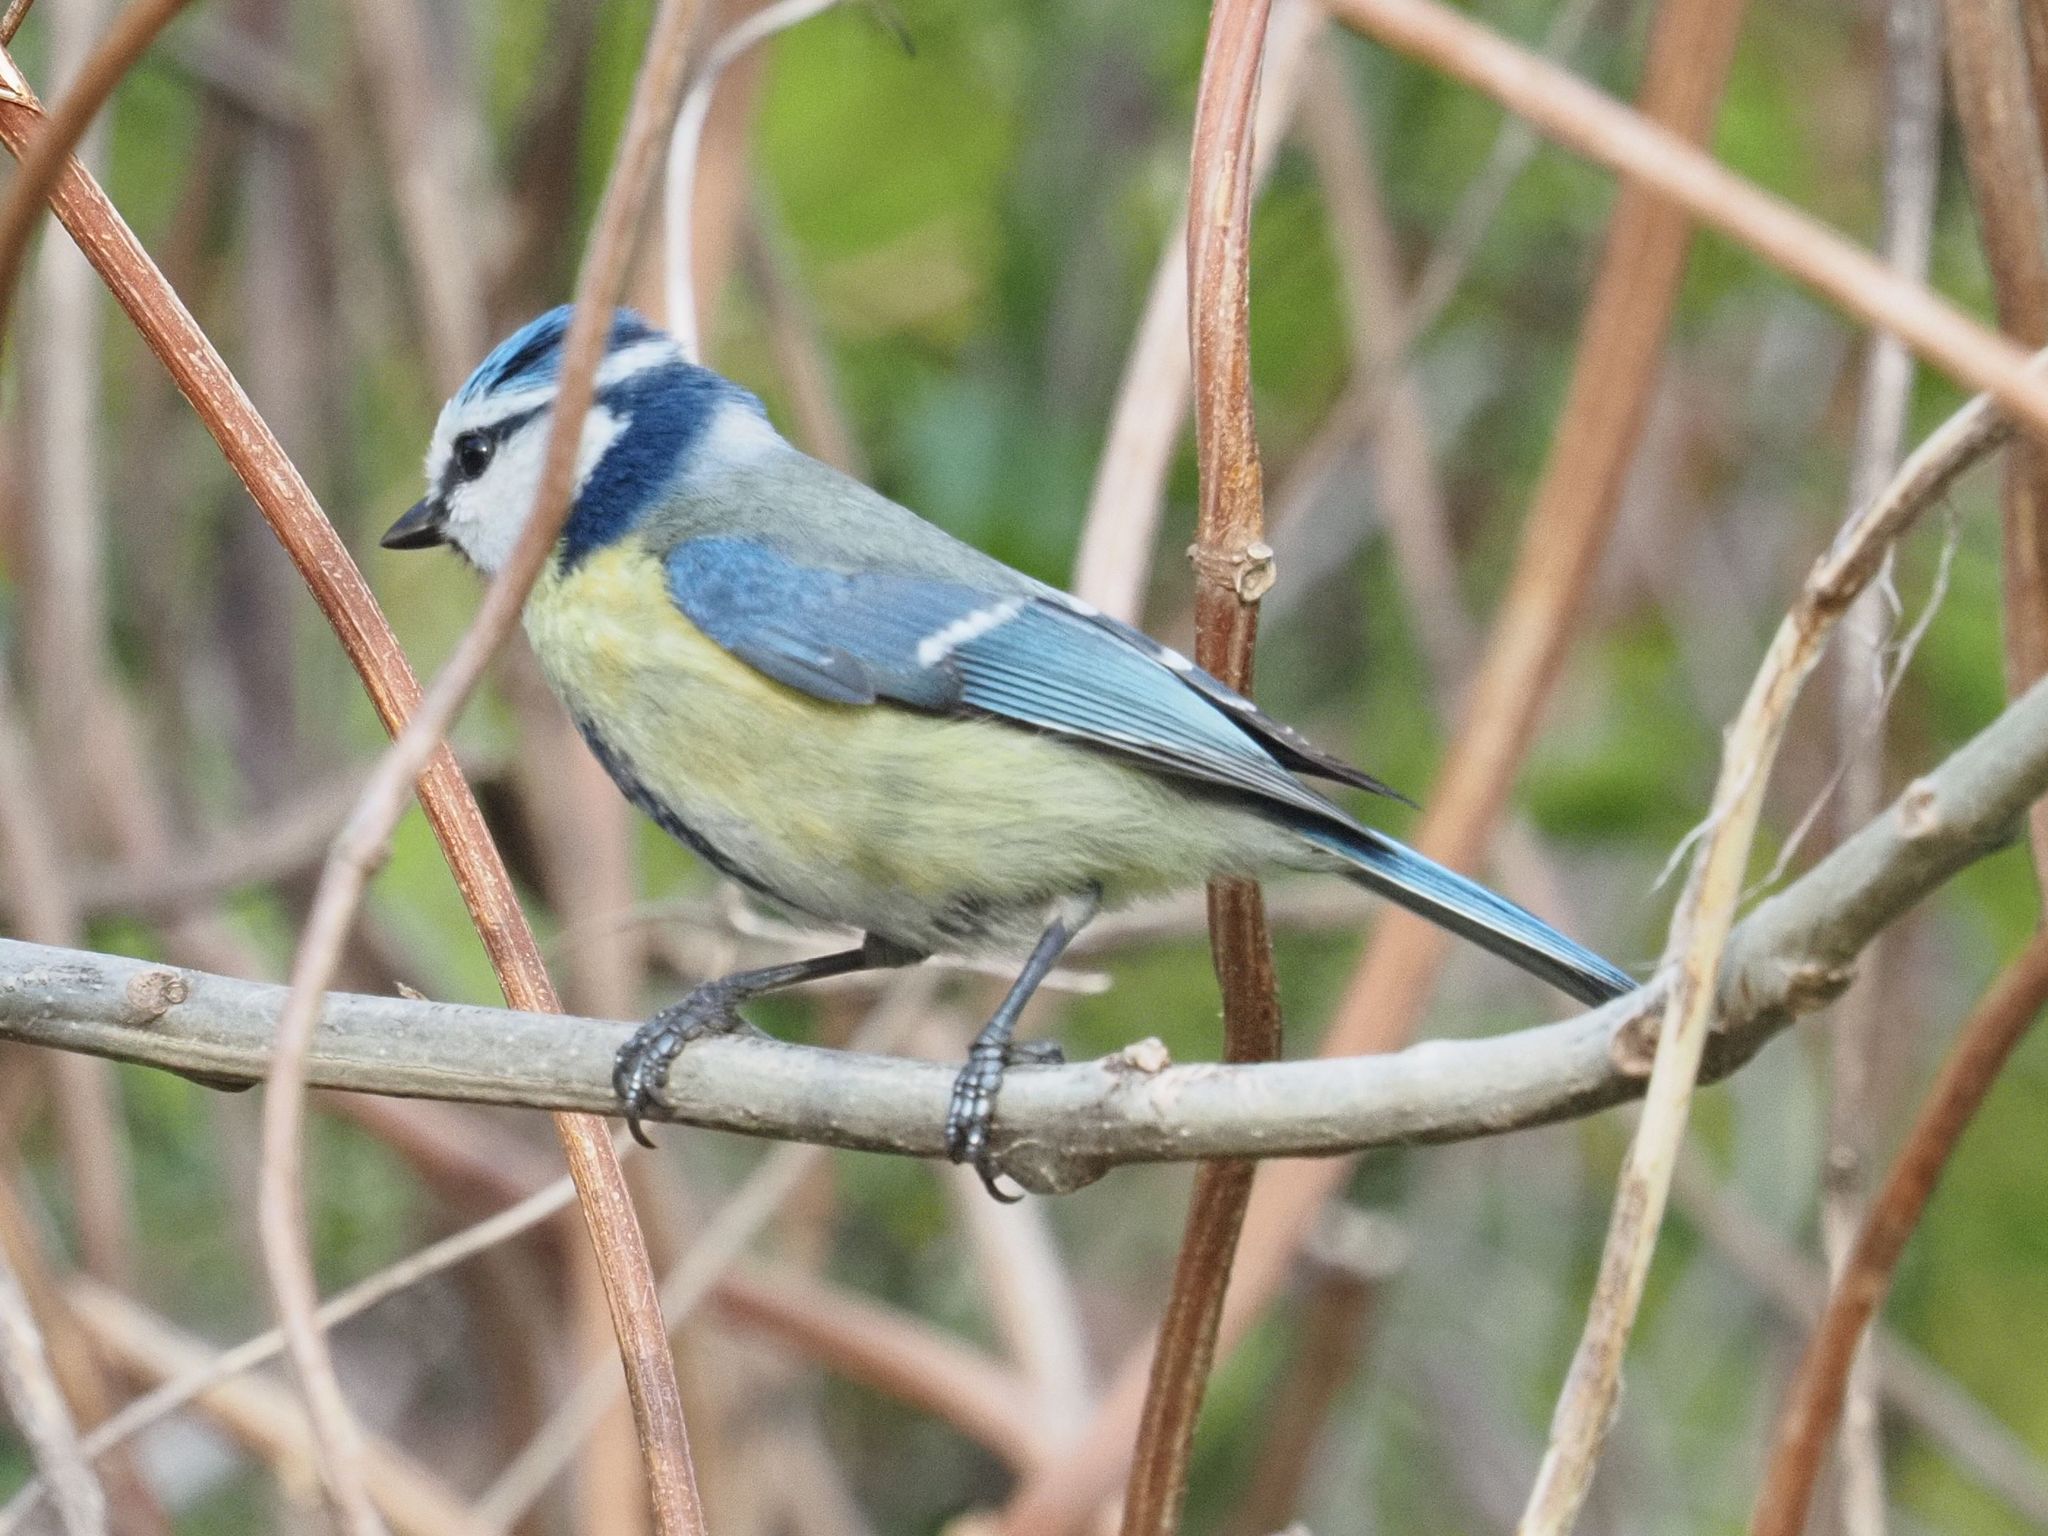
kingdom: Animalia
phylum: Chordata
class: Aves
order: Passeriformes
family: Paridae
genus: Cyanistes
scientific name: Cyanistes caeruleus
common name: Eurasian blue tit
